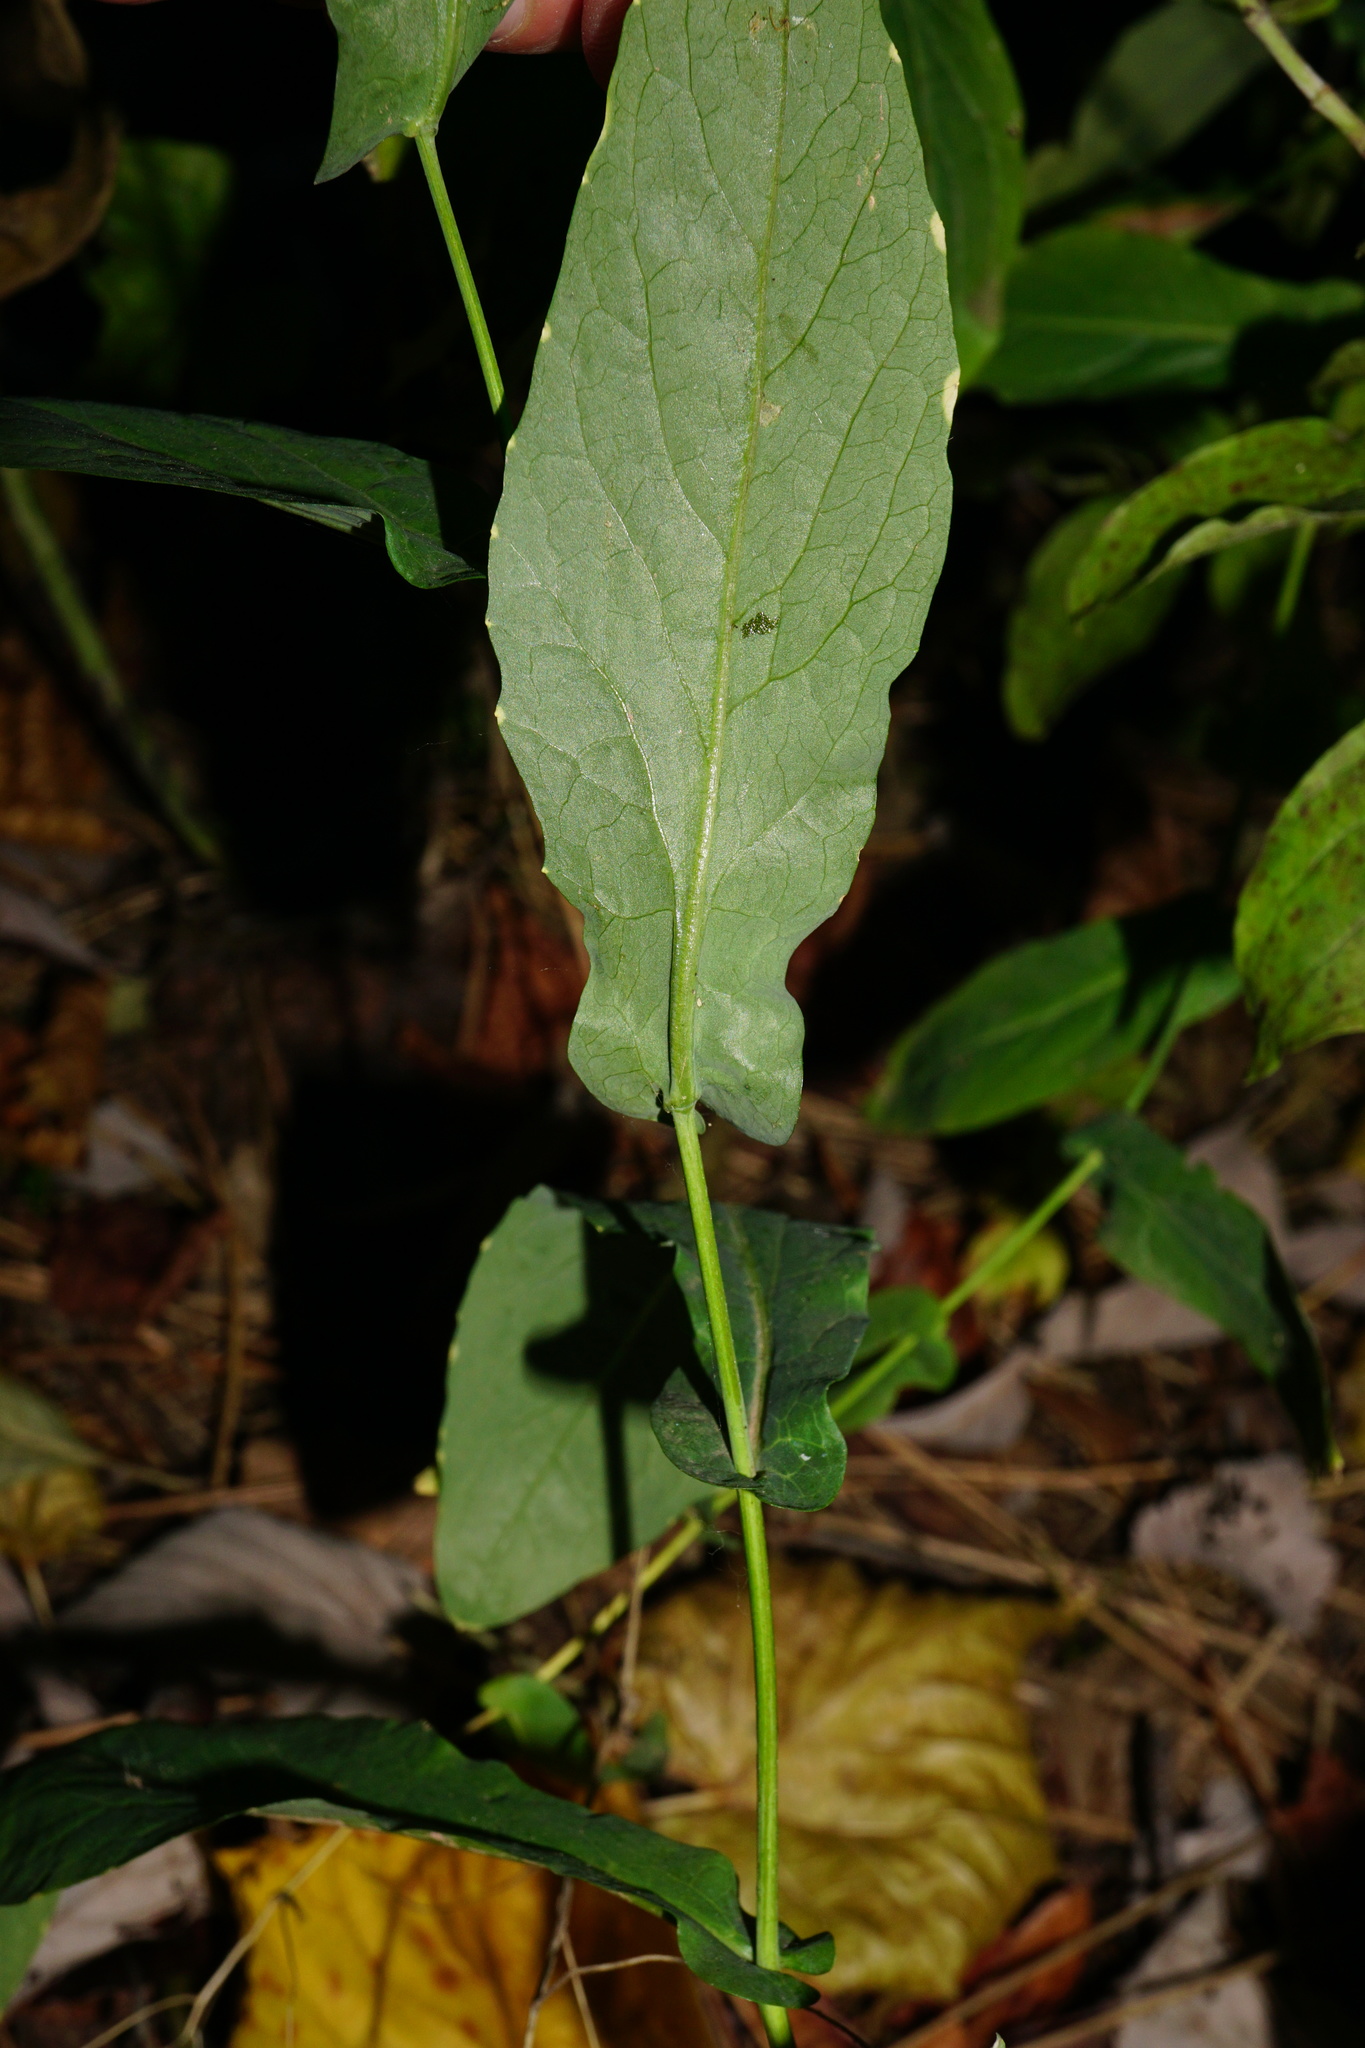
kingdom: Plantae
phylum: Tracheophyta
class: Magnoliopsida
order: Brassicales
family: Brassicaceae
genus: Peltaria
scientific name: Peltaria alliacea
